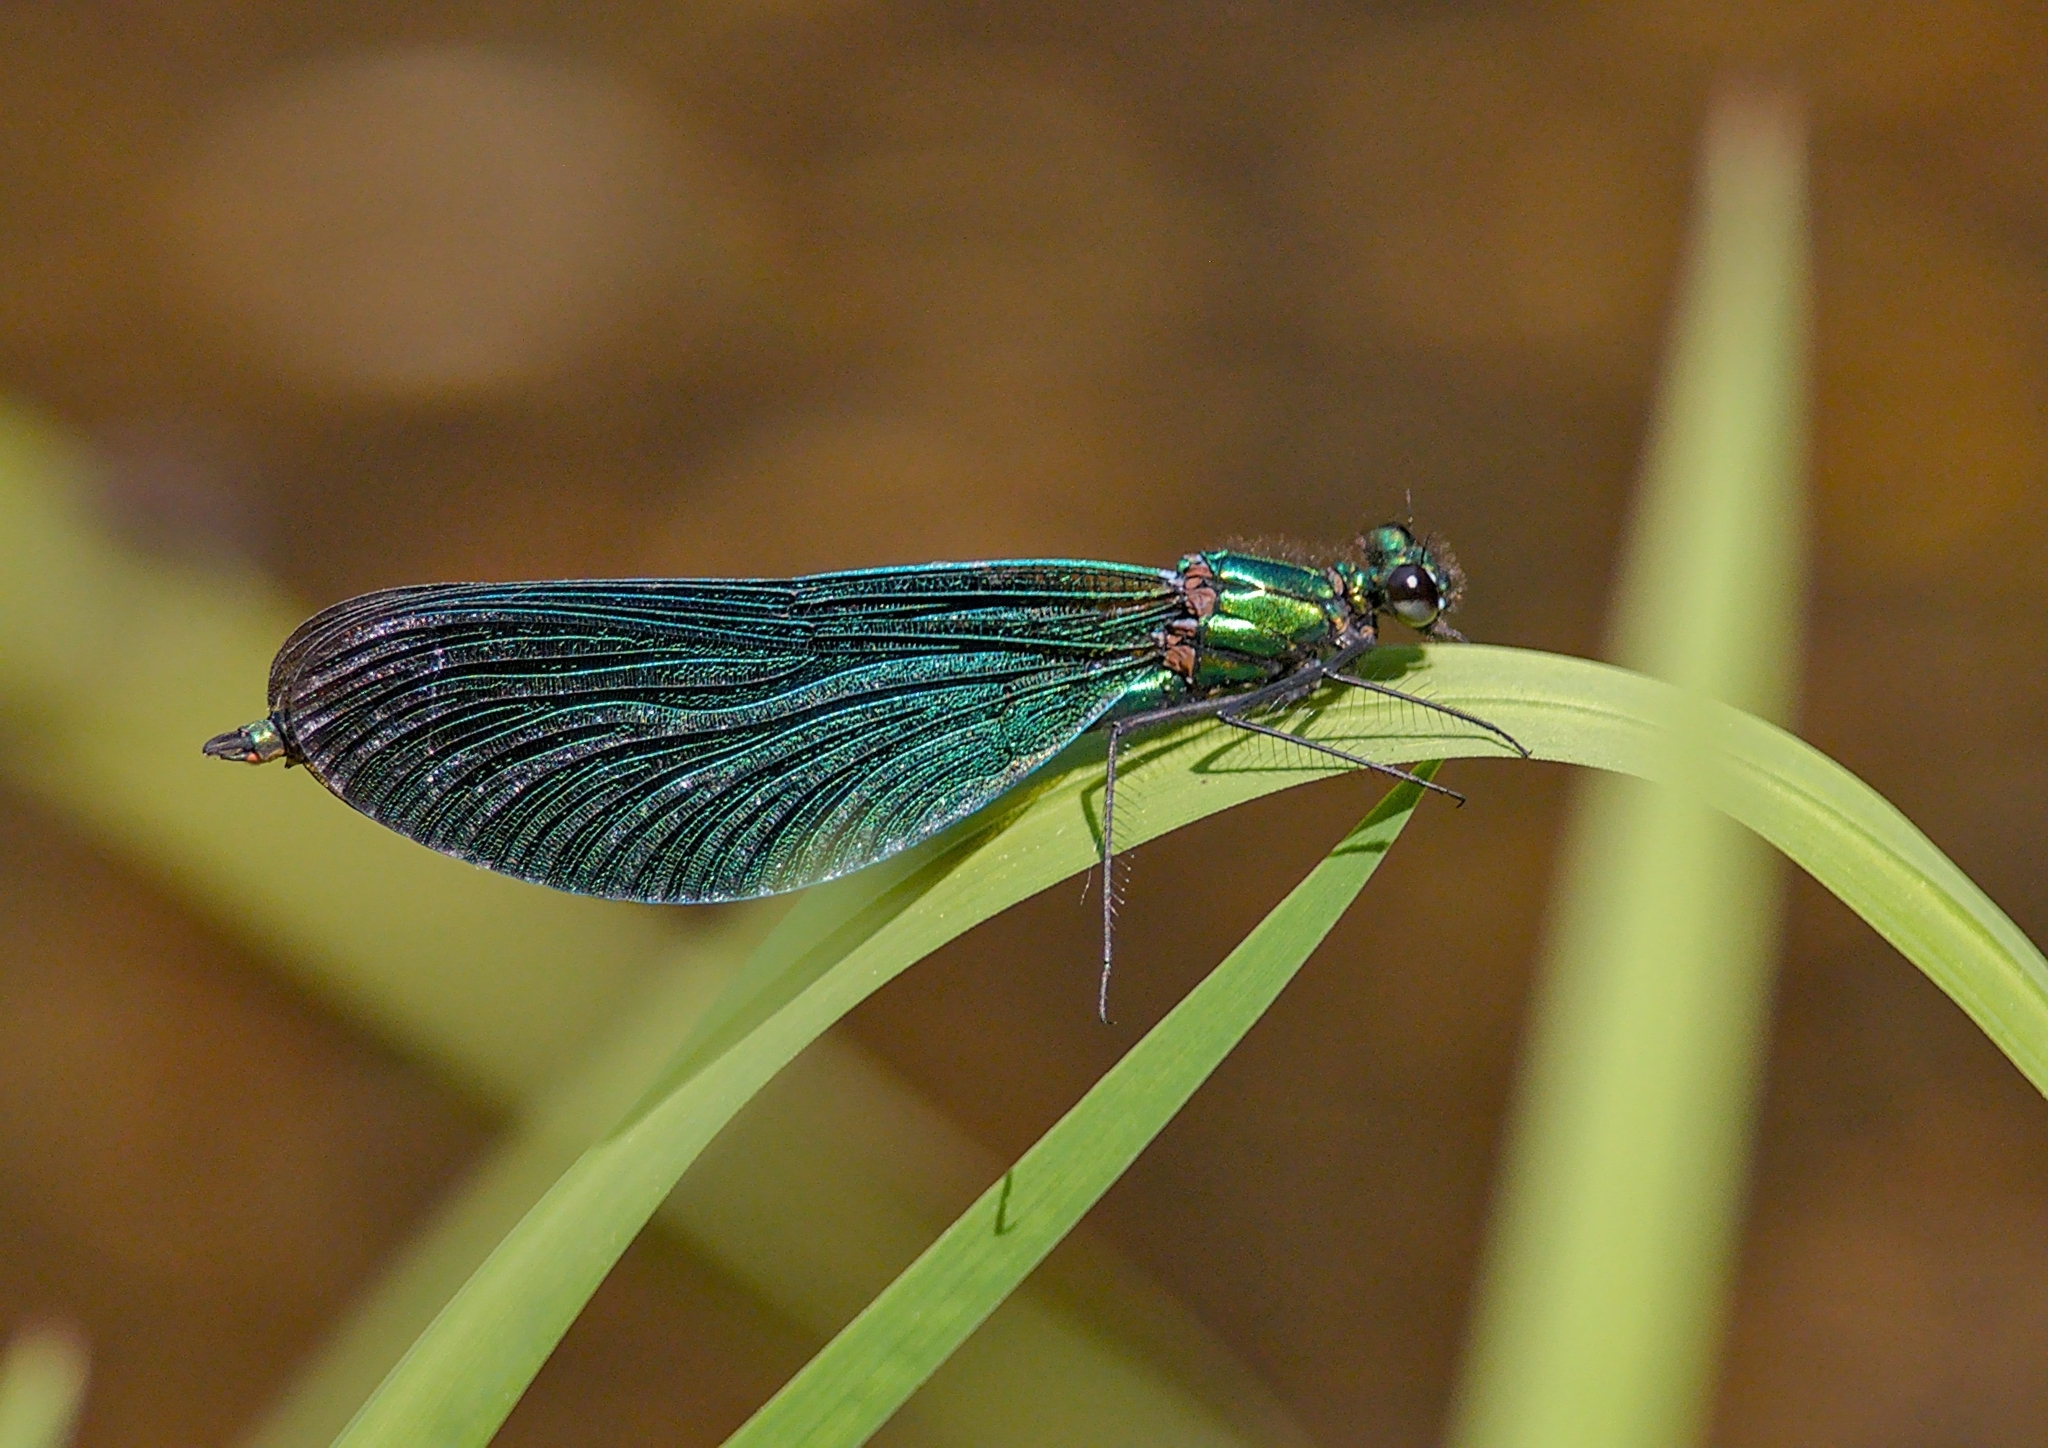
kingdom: Animalia
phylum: Arthropoda
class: Insecta
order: Odonata
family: Calopterygidae
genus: Calopteryx
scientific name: Calopteryx virgo
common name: Beautiful demoiselle
